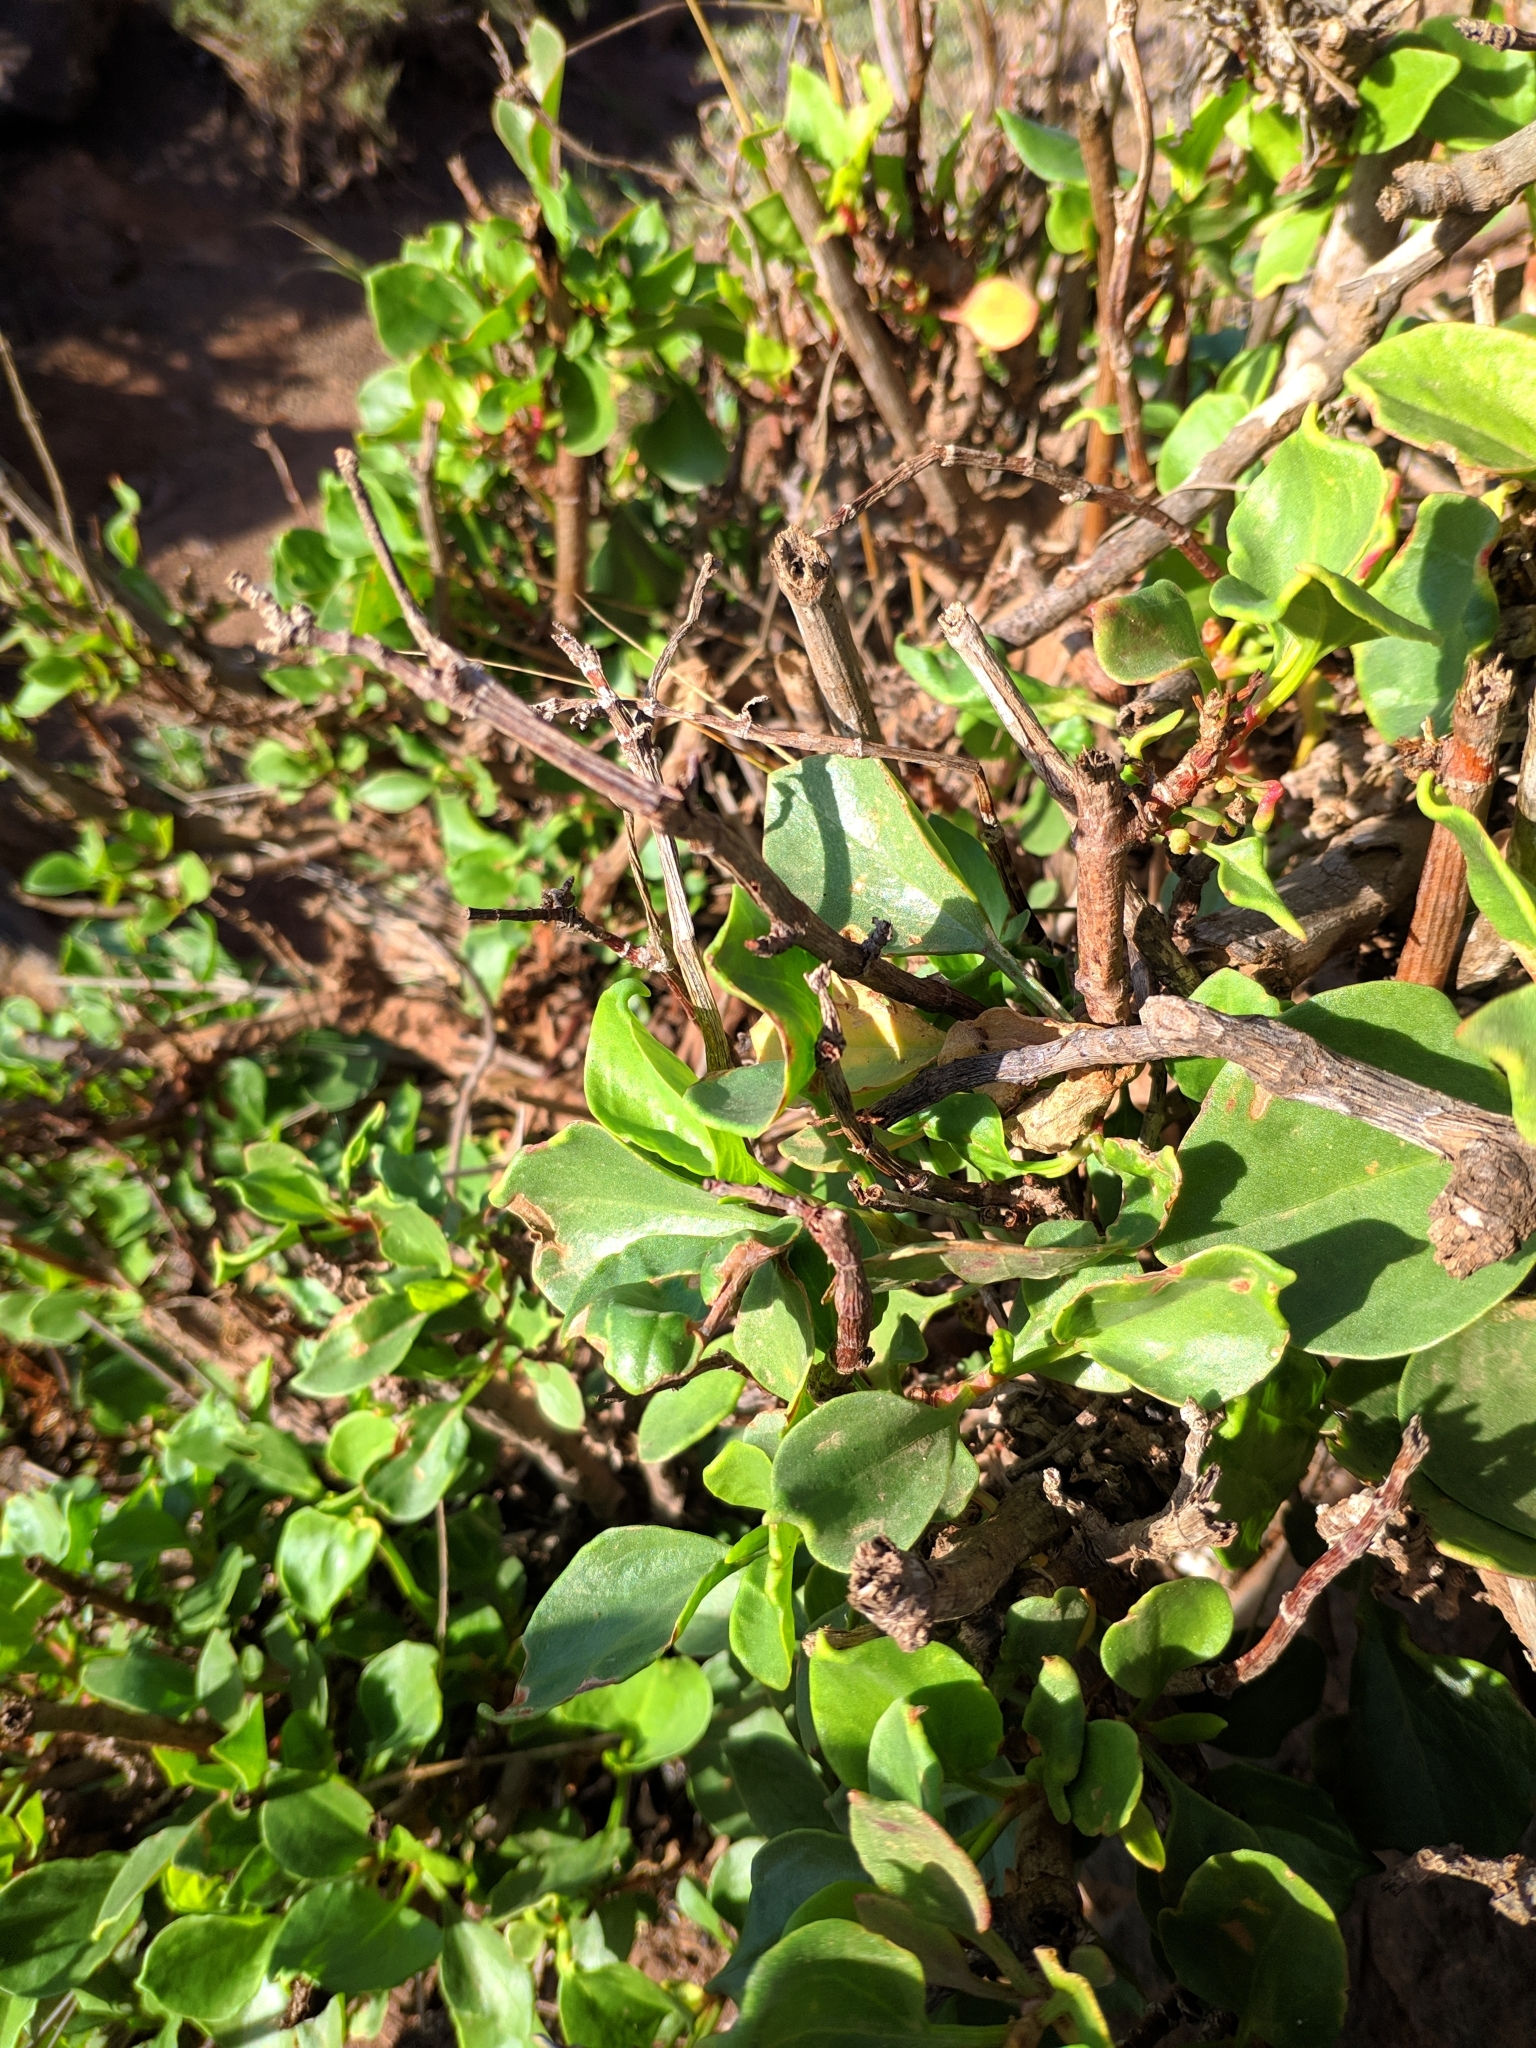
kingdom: Plantae
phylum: Tracheophyta
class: Magnoliopsida
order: Caryophyllales
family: Polygonaceae
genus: Rumex
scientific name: Rumex lunaria
